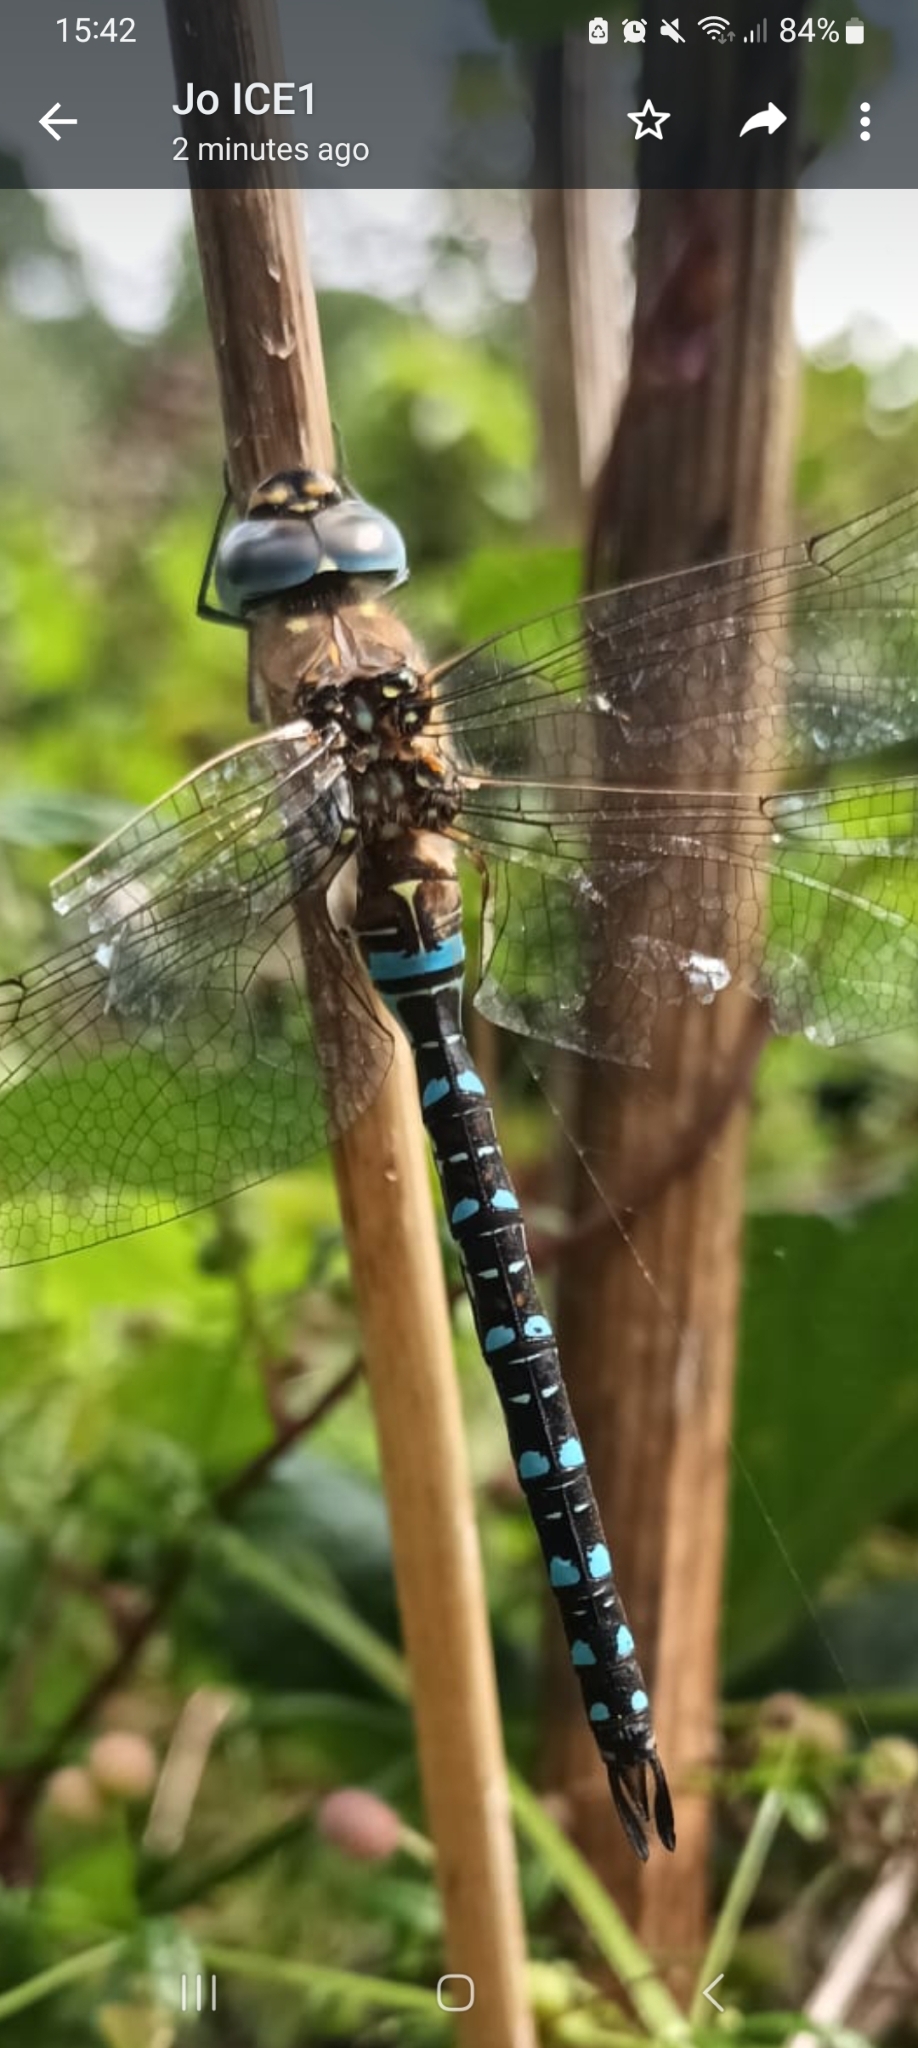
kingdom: Animalia
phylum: Arthropoda
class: Insecta
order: Odonata
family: Aeshnidae
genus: Aeshna
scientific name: Aeshna mixta
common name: Migrant hawker
